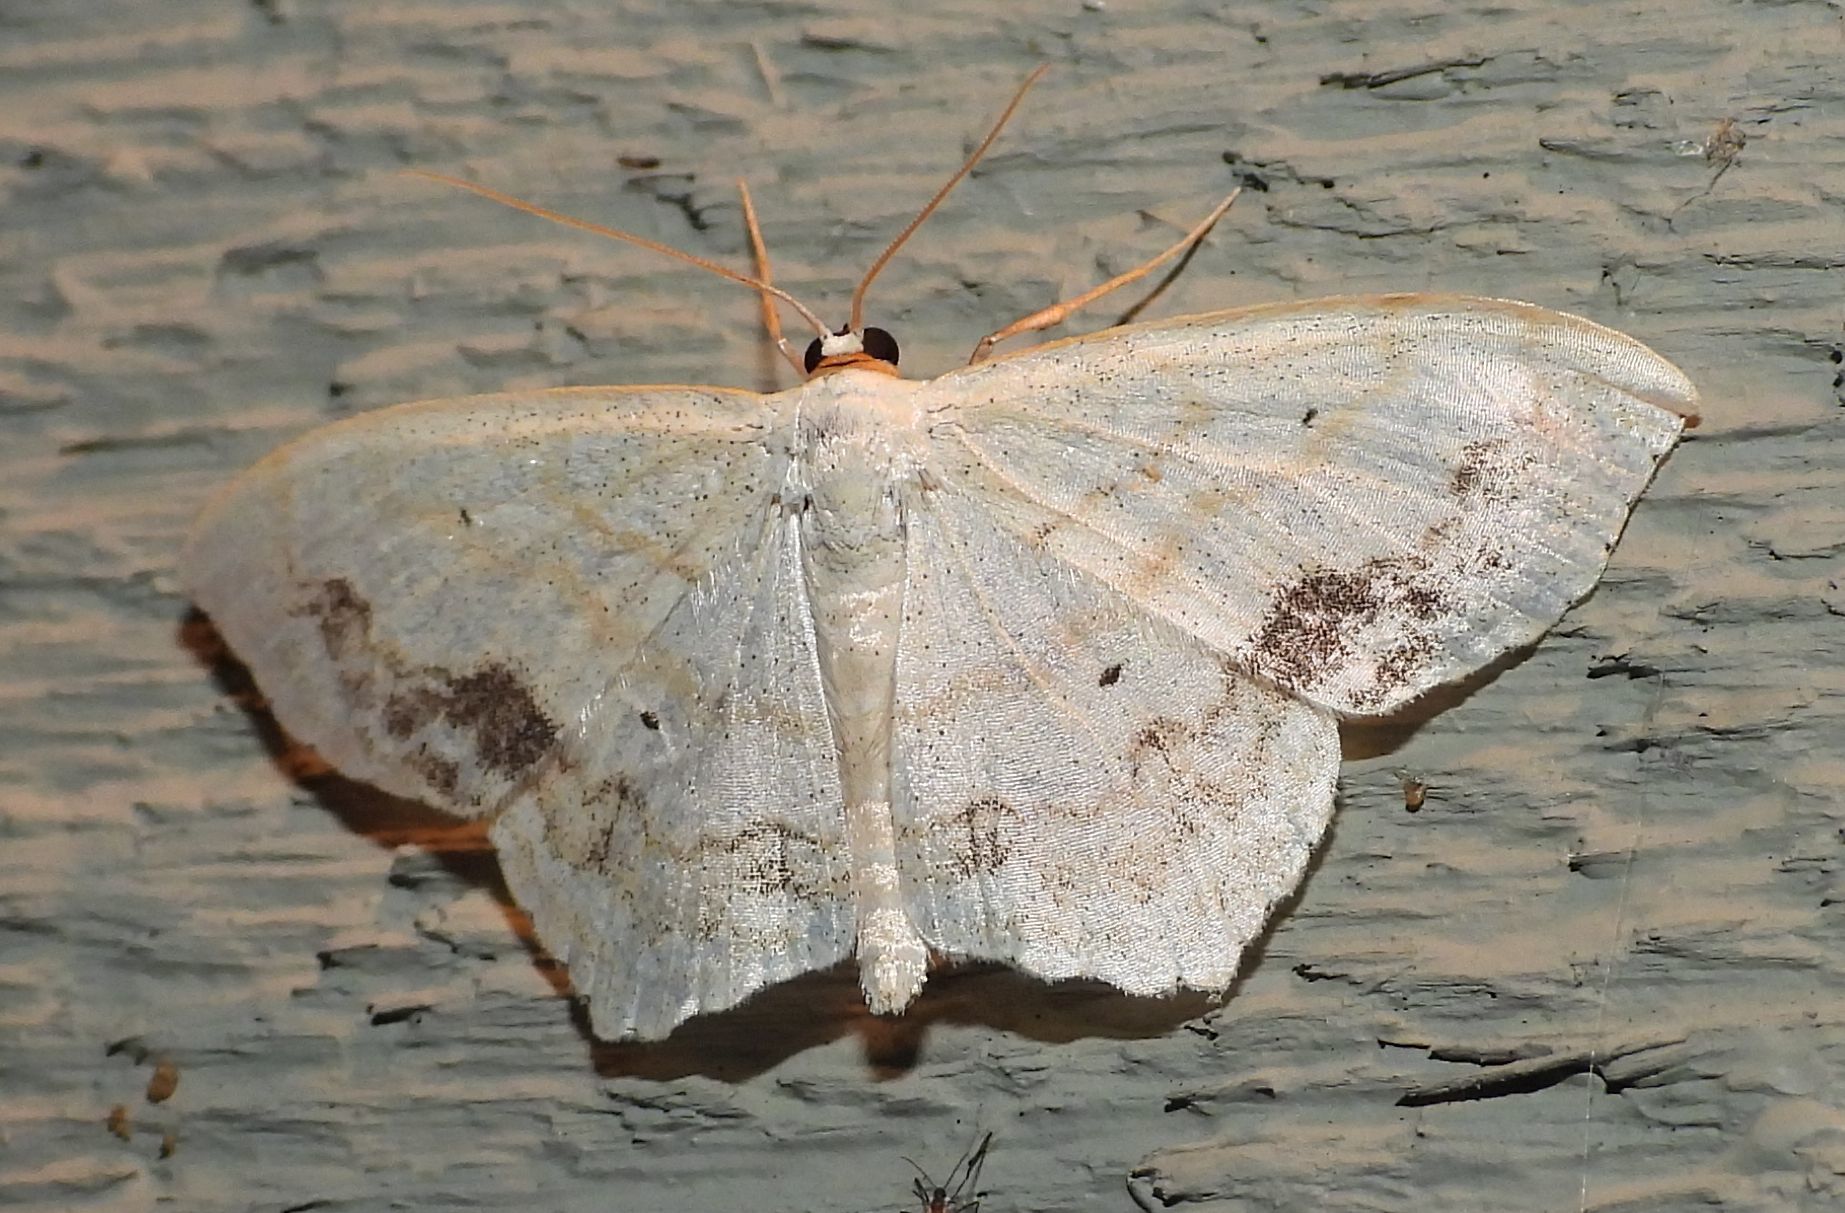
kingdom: Animalia
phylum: Arthropoda
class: Insecta
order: Lepidoptera
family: Geometridae
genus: Scopula
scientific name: Scopula limboundata
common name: Large lace border
